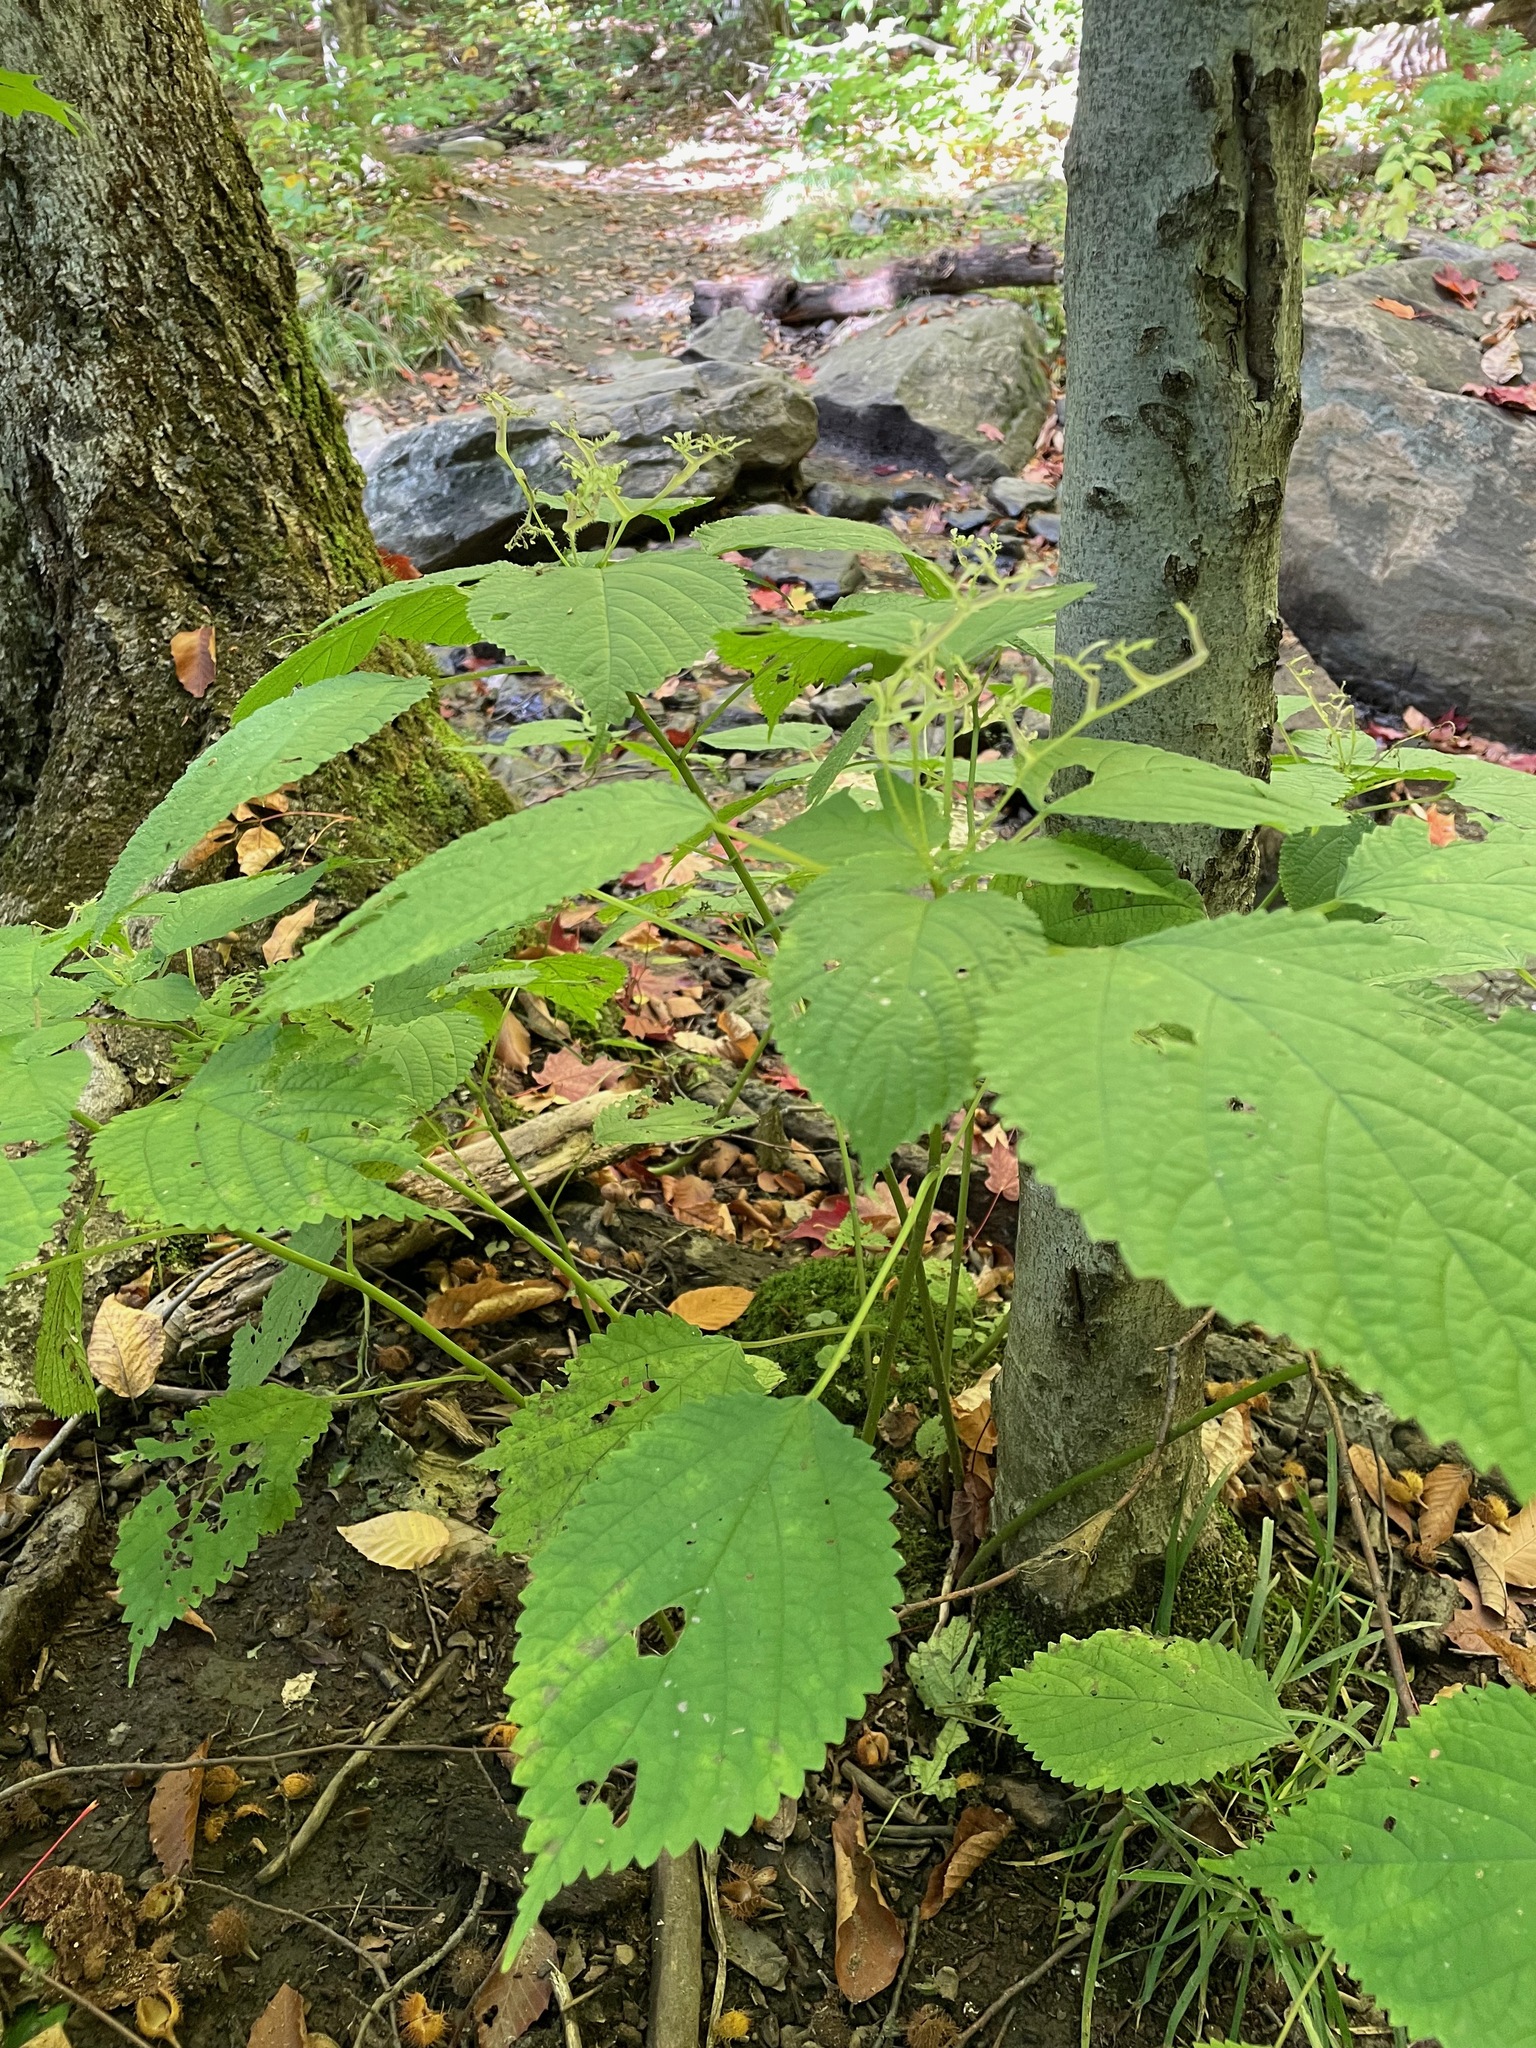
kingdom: Plantae
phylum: Tracheophyta
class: Magnoliopsida
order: Rosales
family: Urticaceae
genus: Laportea
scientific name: Laportea canadensis
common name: Canada nettle
